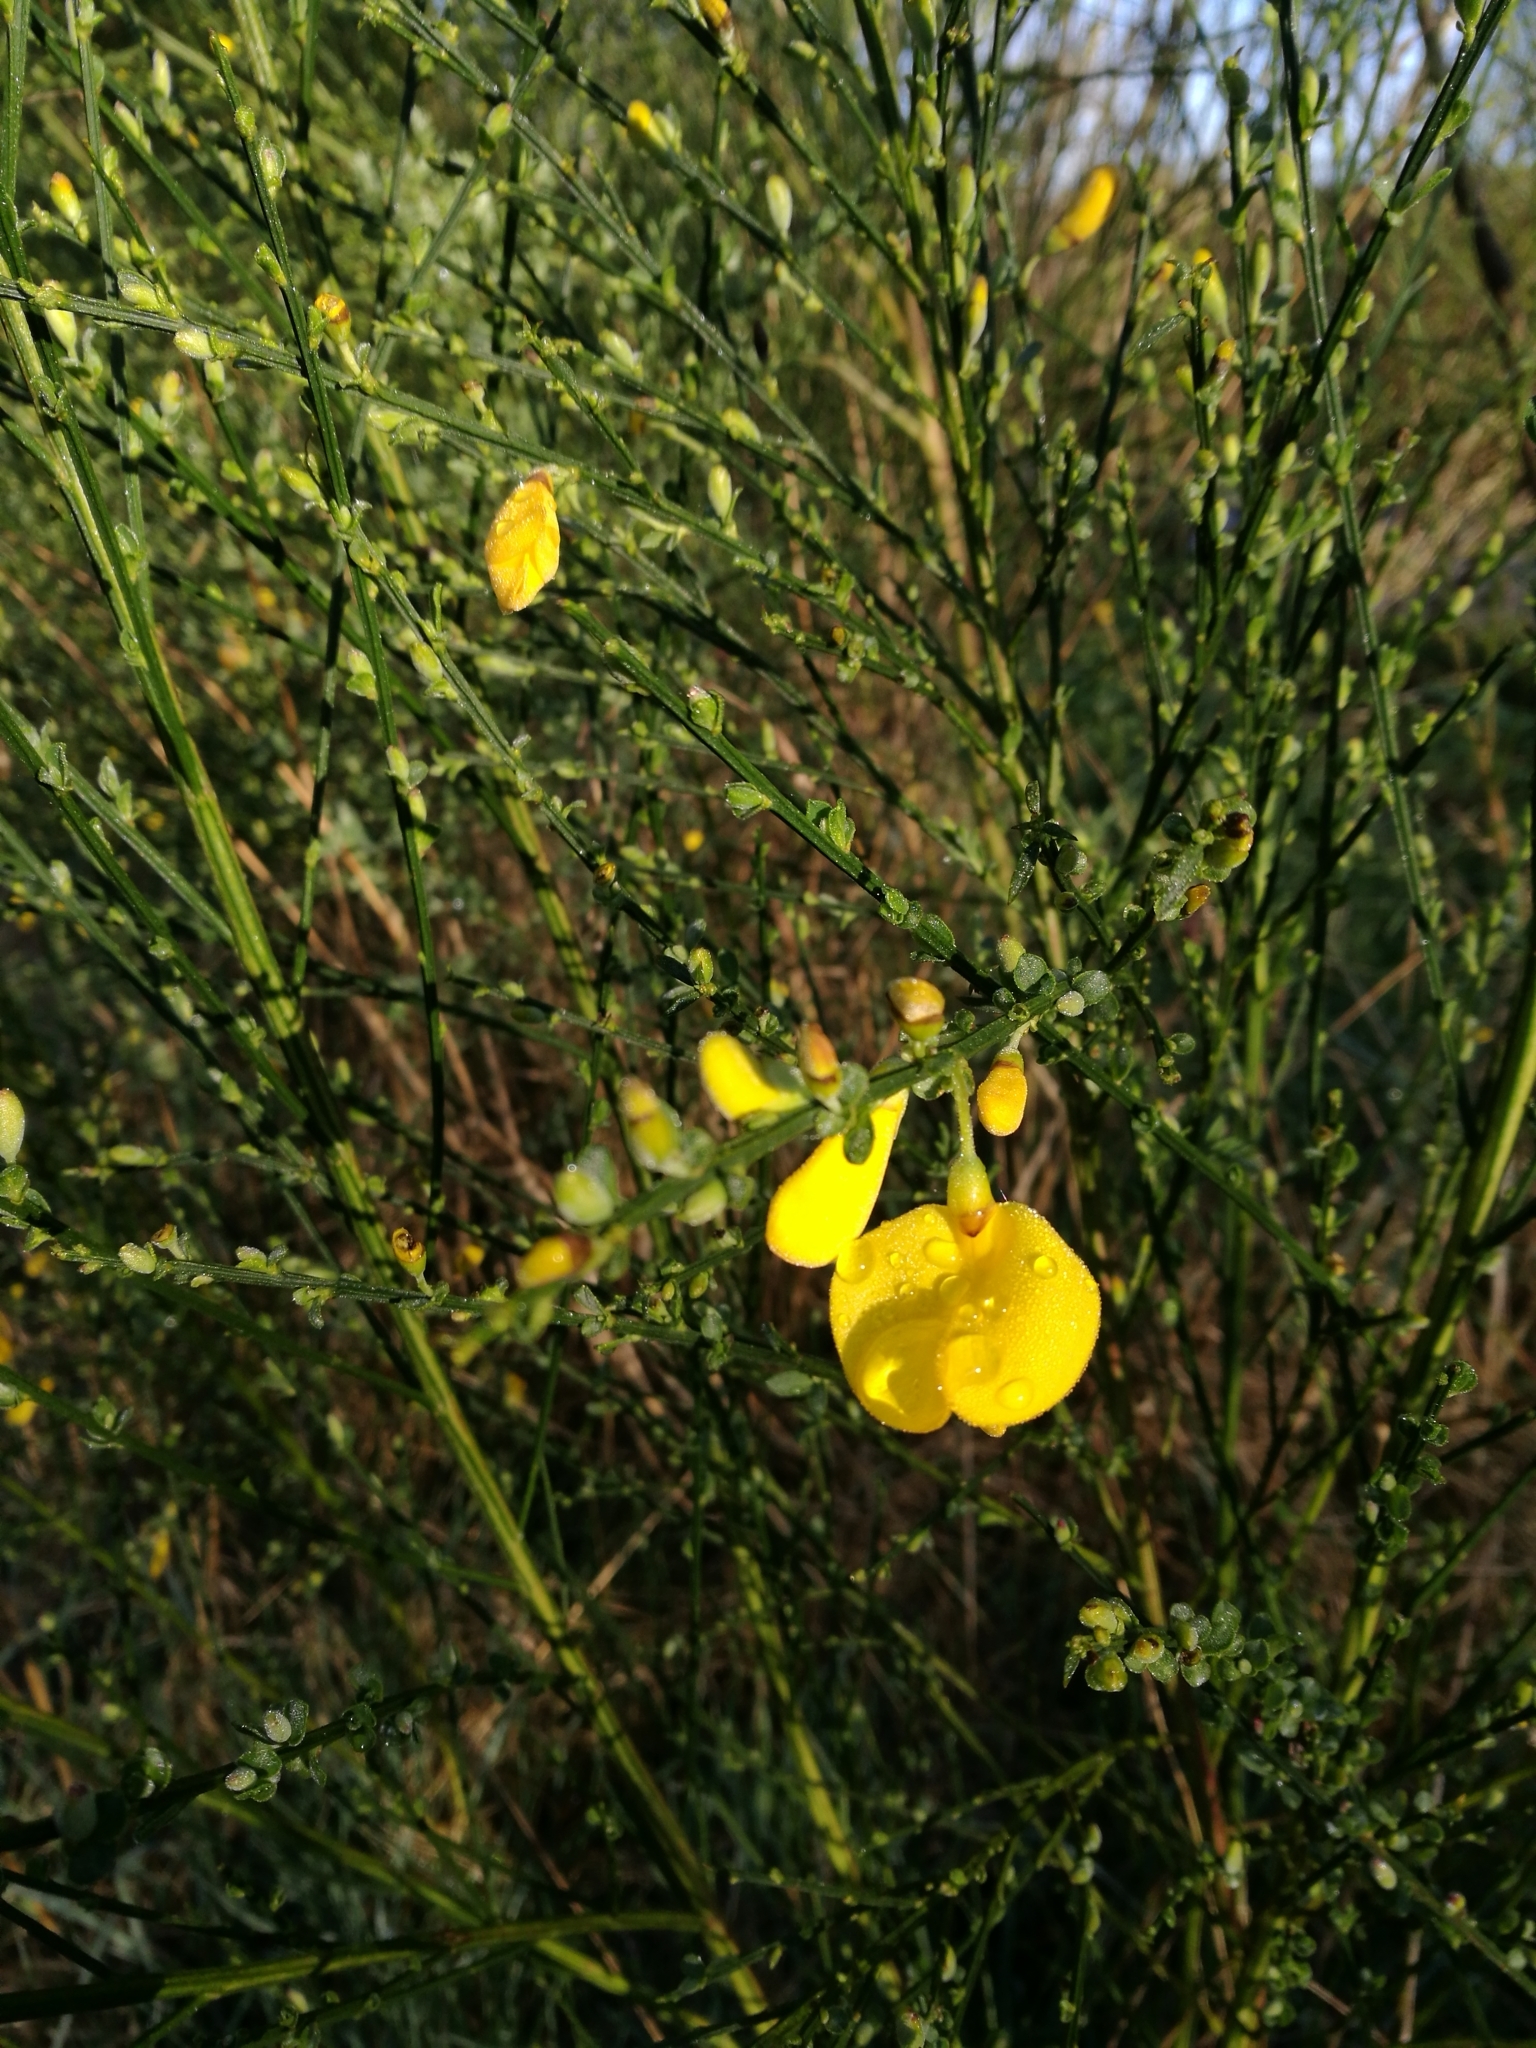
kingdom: Plantae
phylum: Tracheophyta
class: Magnoliopsida
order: Fabales
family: Fabaceae
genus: Cytisus
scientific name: Cytisus scoparius
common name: Scotch broom
